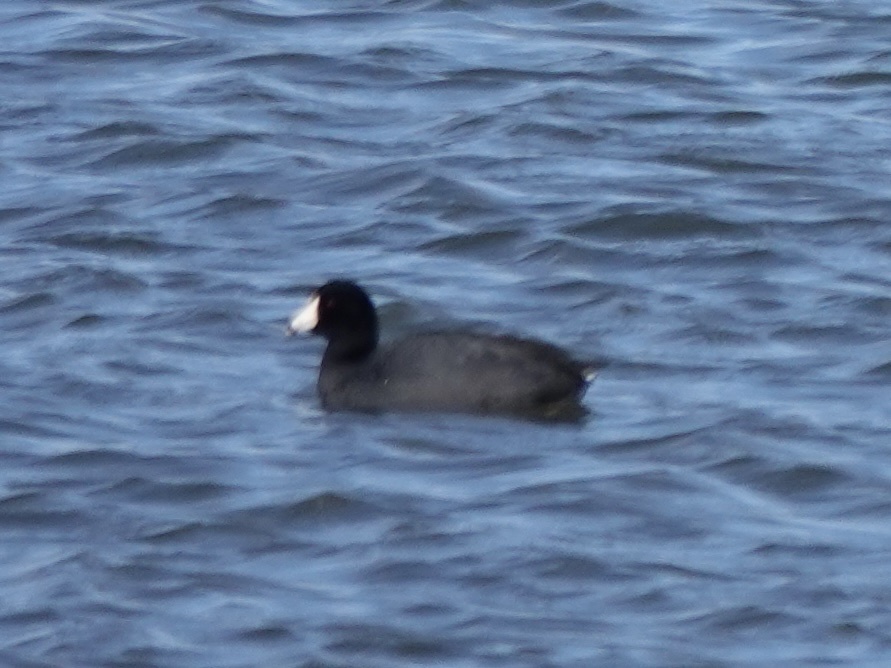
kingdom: Animalia
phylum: Chordata
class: Aves
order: Gruiformes
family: Rallidae
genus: Fulica
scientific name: Fulica americana
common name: American coot
